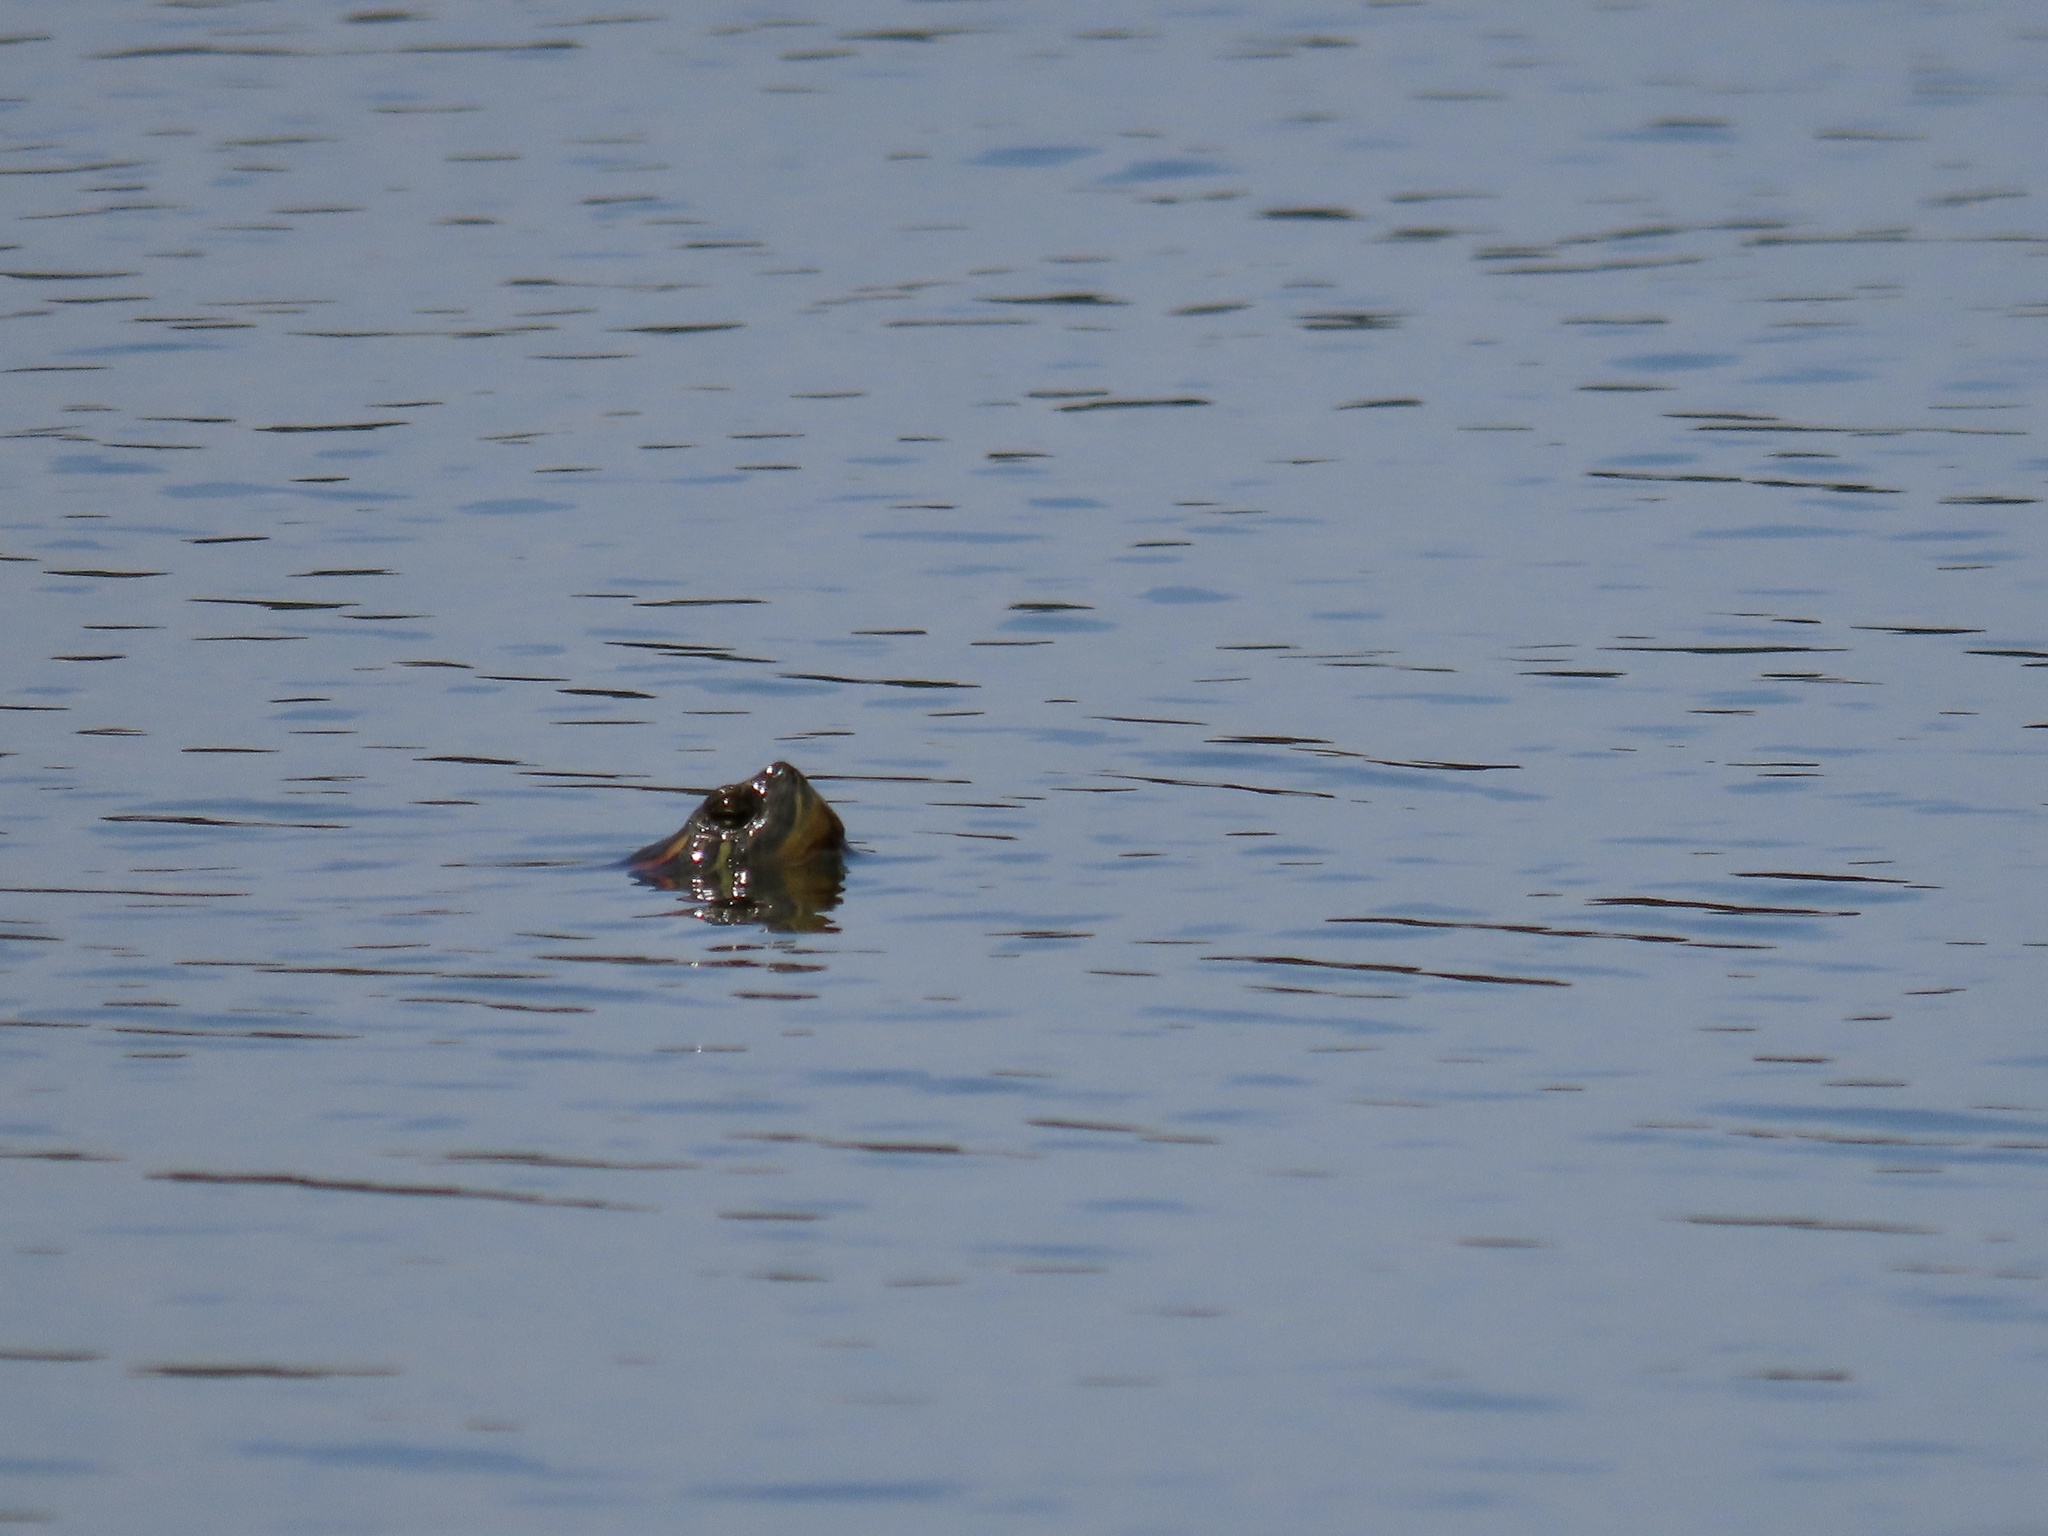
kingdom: Animalia
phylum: Chordata
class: Testudines
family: Emydidae
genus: Trachemys
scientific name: Trachemys scripta
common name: Slider
